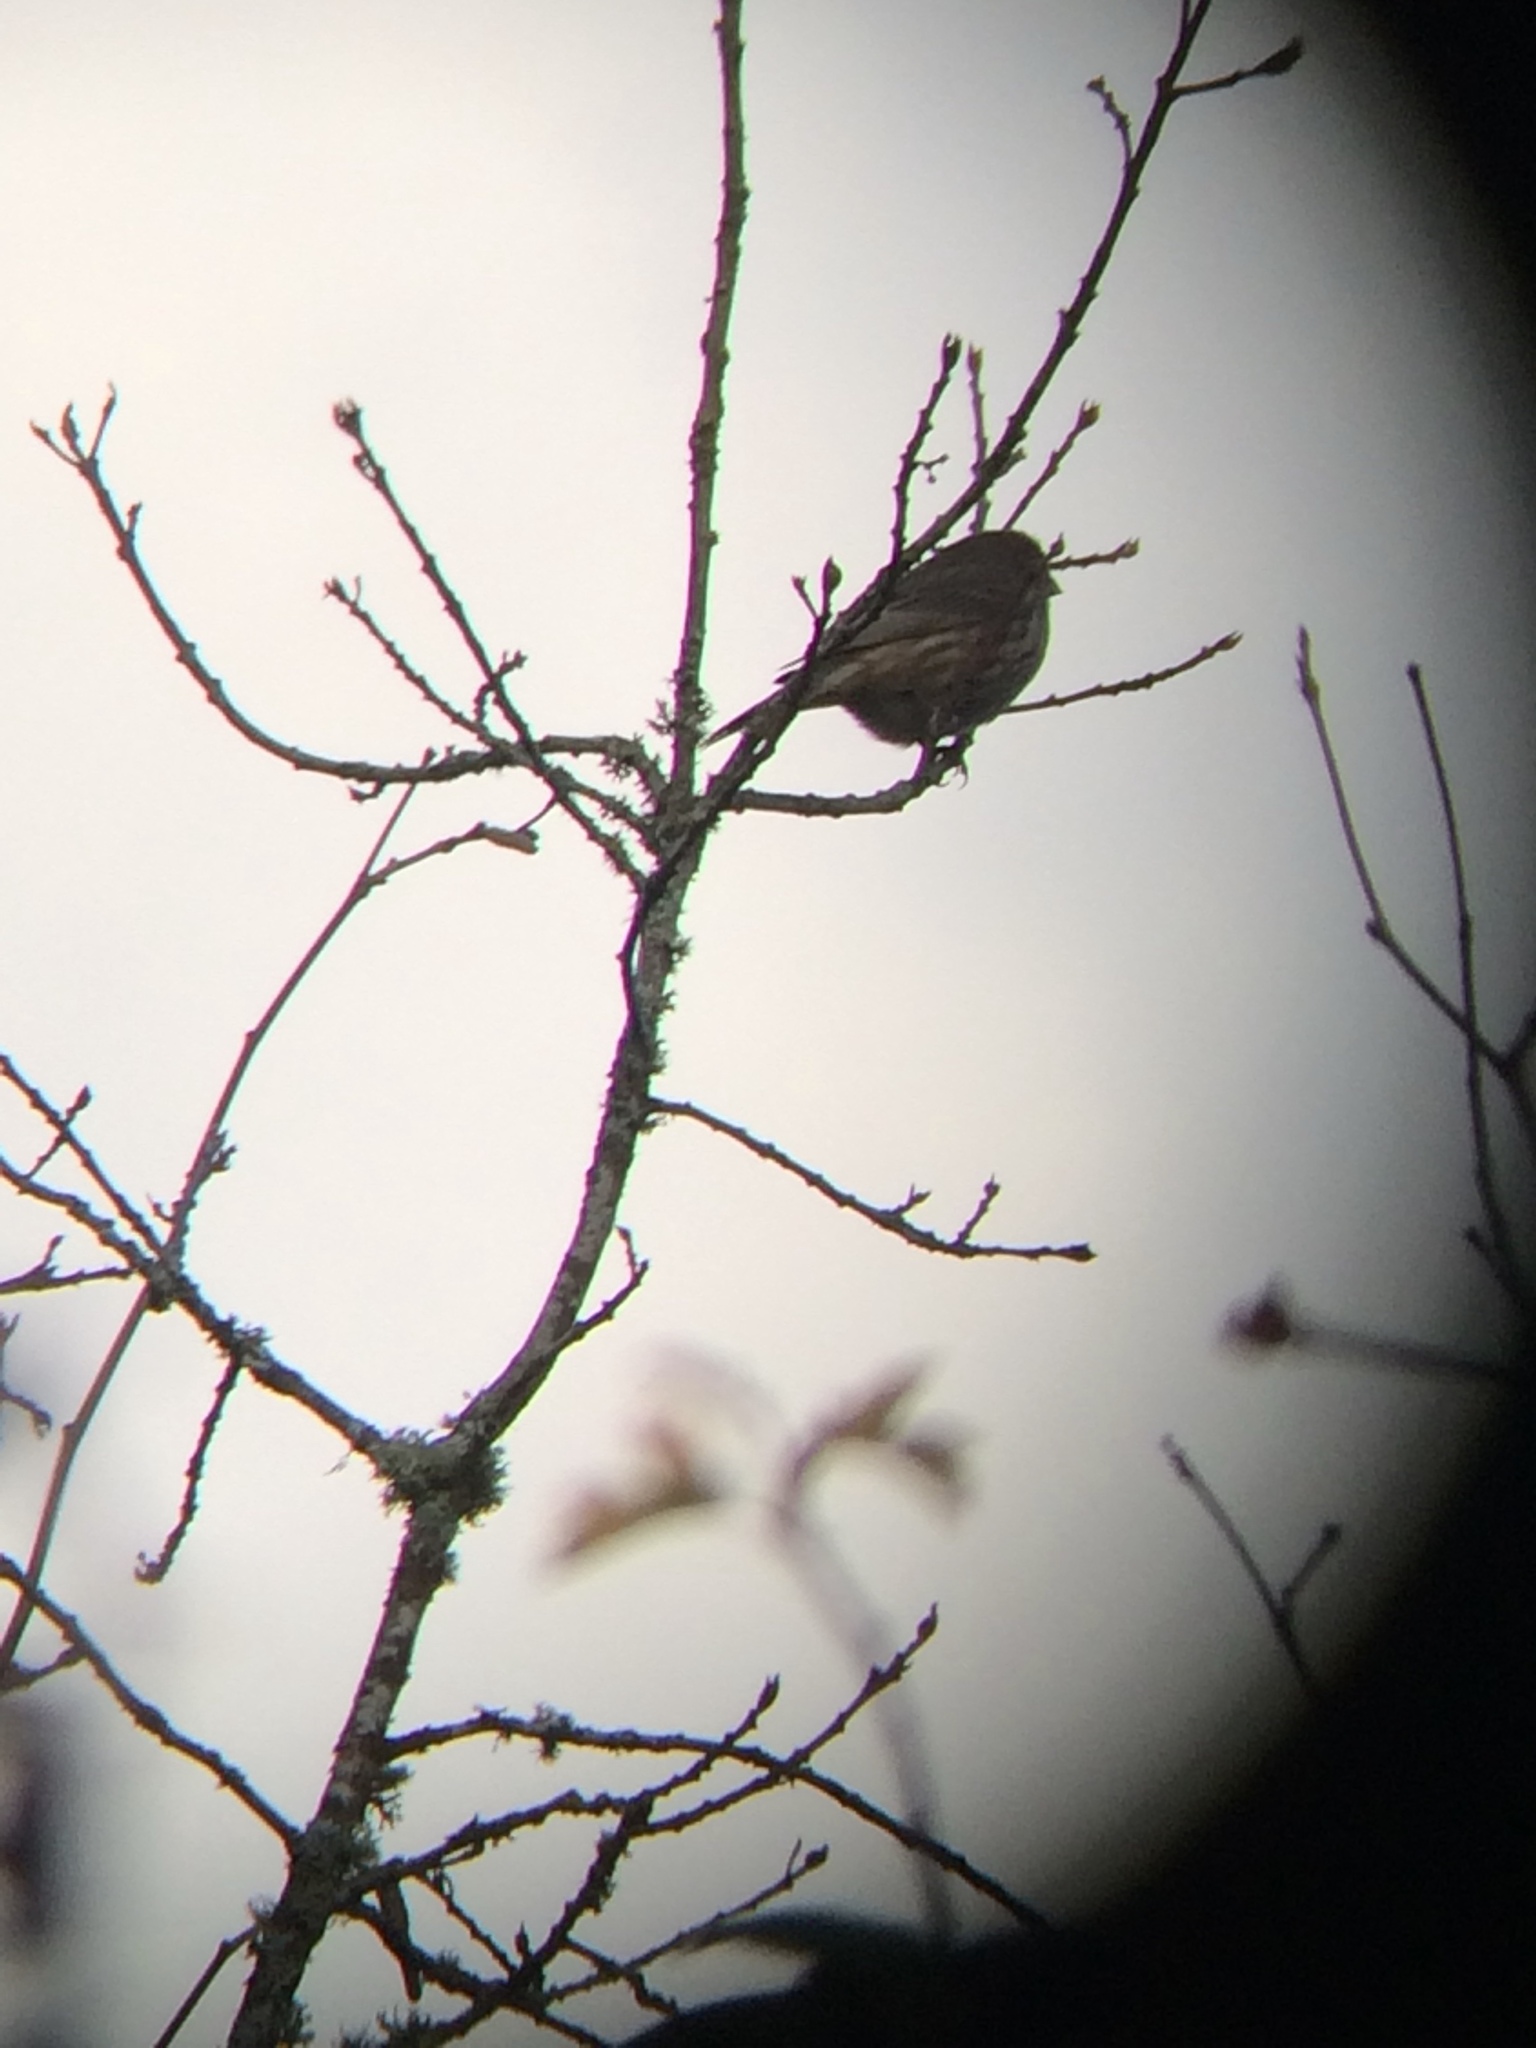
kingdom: Animalia
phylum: Chordata
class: Aves
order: Passeriformes
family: Fringillidae
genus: Haemorhous
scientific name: Haemorhous mexicanus
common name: House finch
